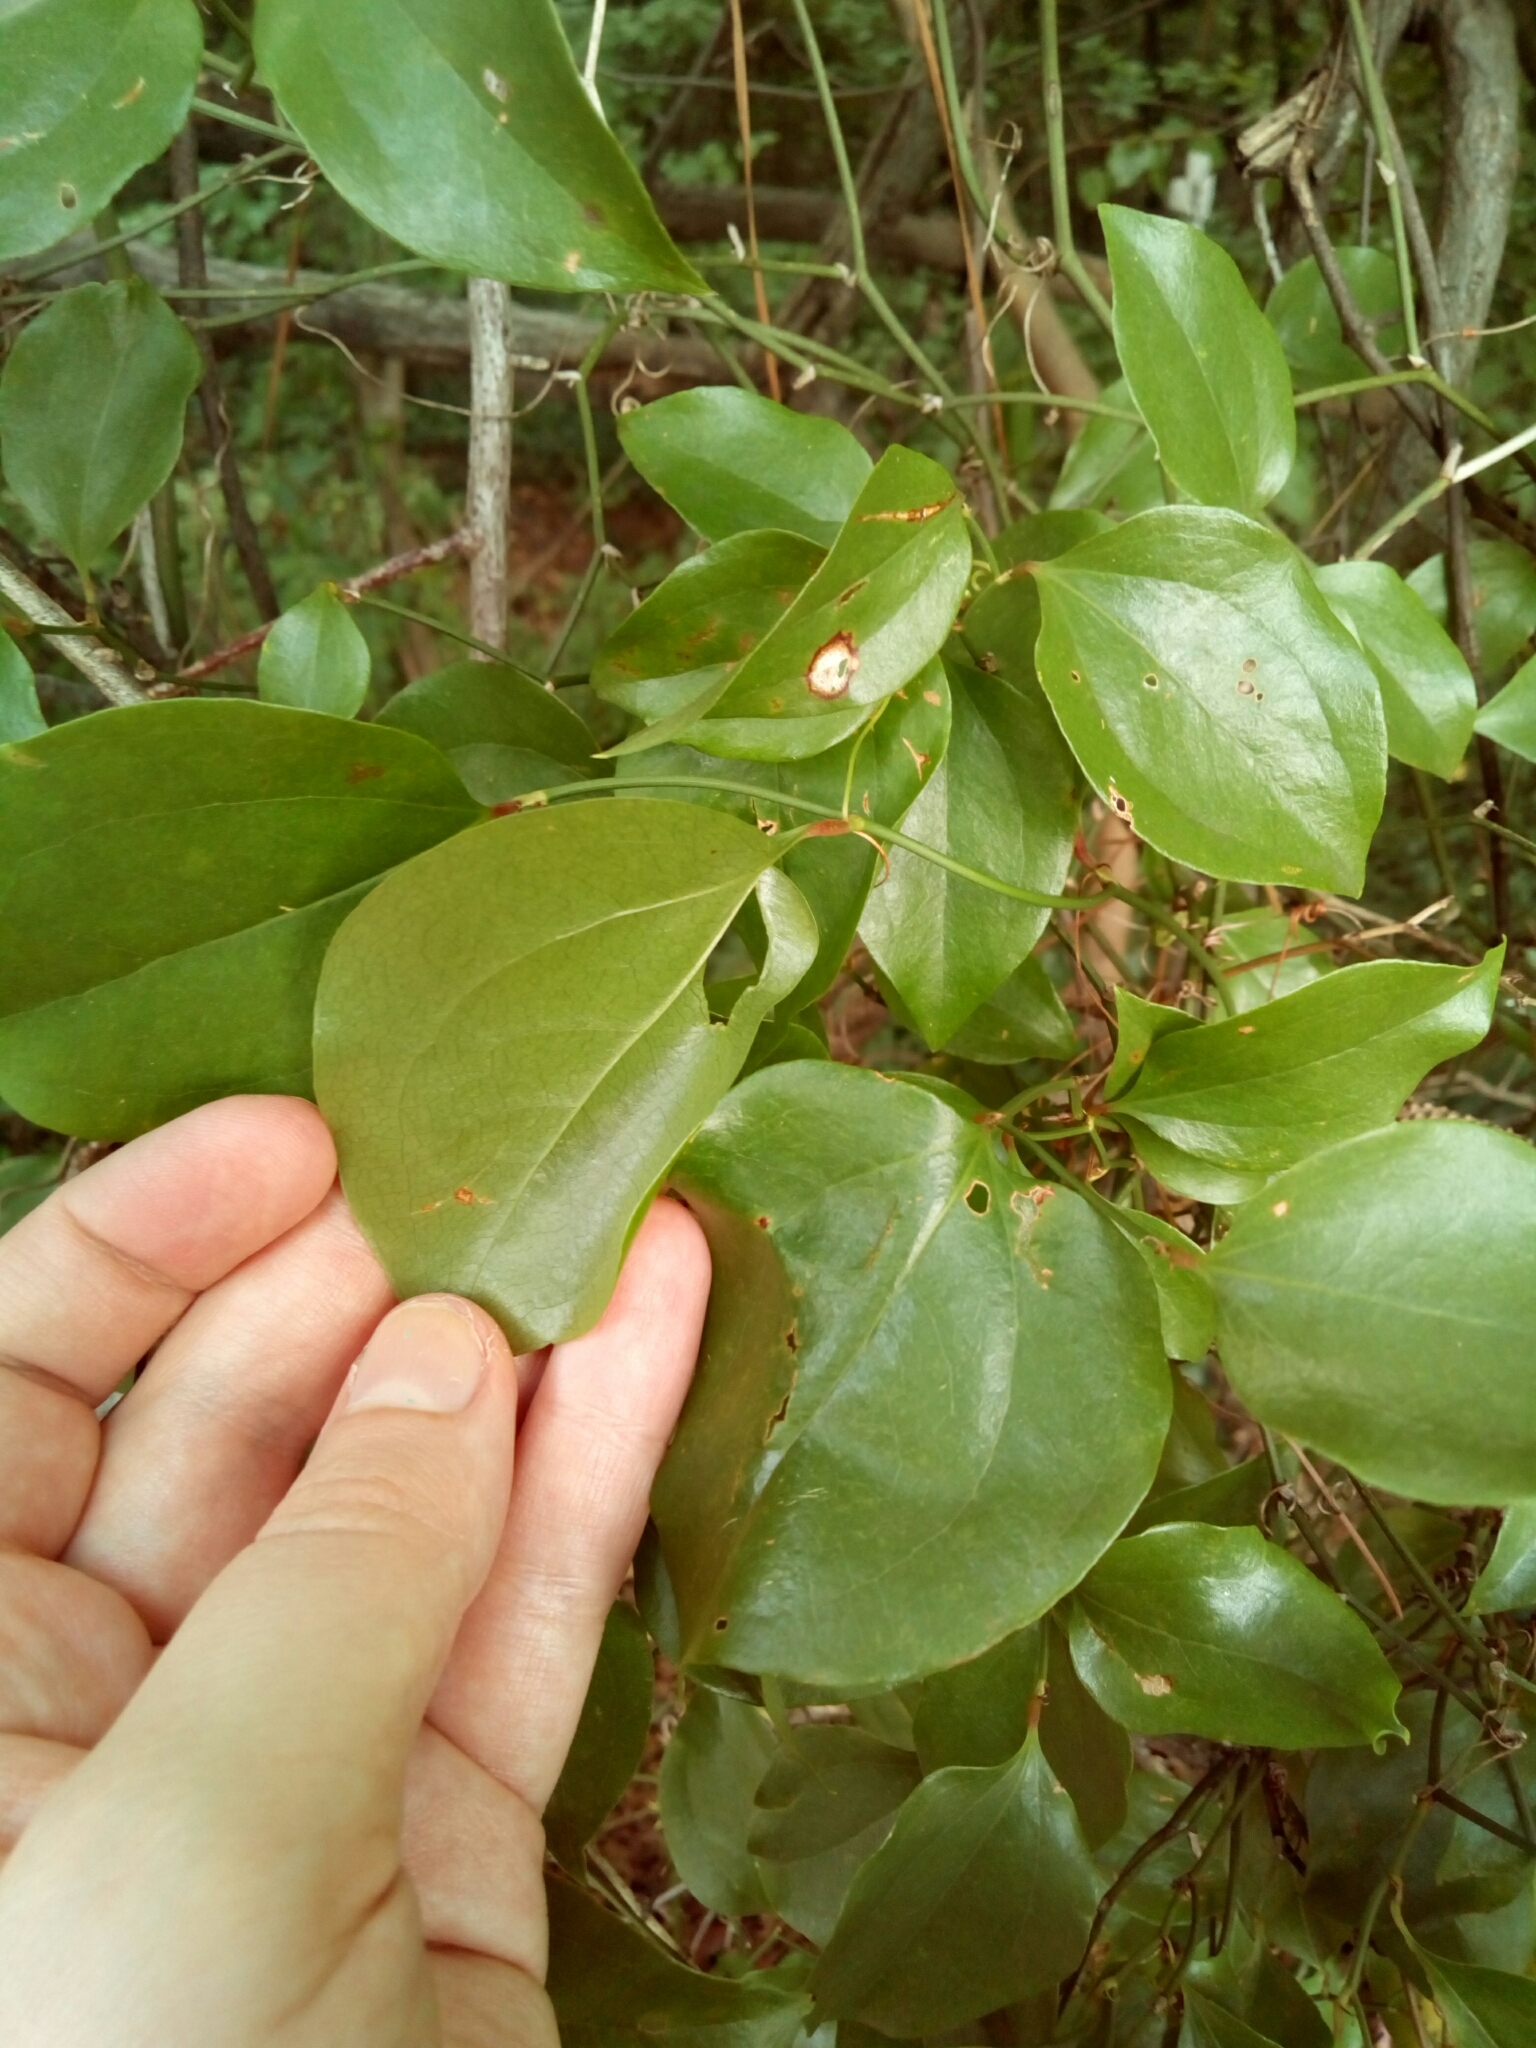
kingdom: Plantae
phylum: Tracheophyta
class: Liliopsida
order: Liliales
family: Smilacaceae
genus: Smilax
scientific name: Smilax rotundifolia
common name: Bullbriar
